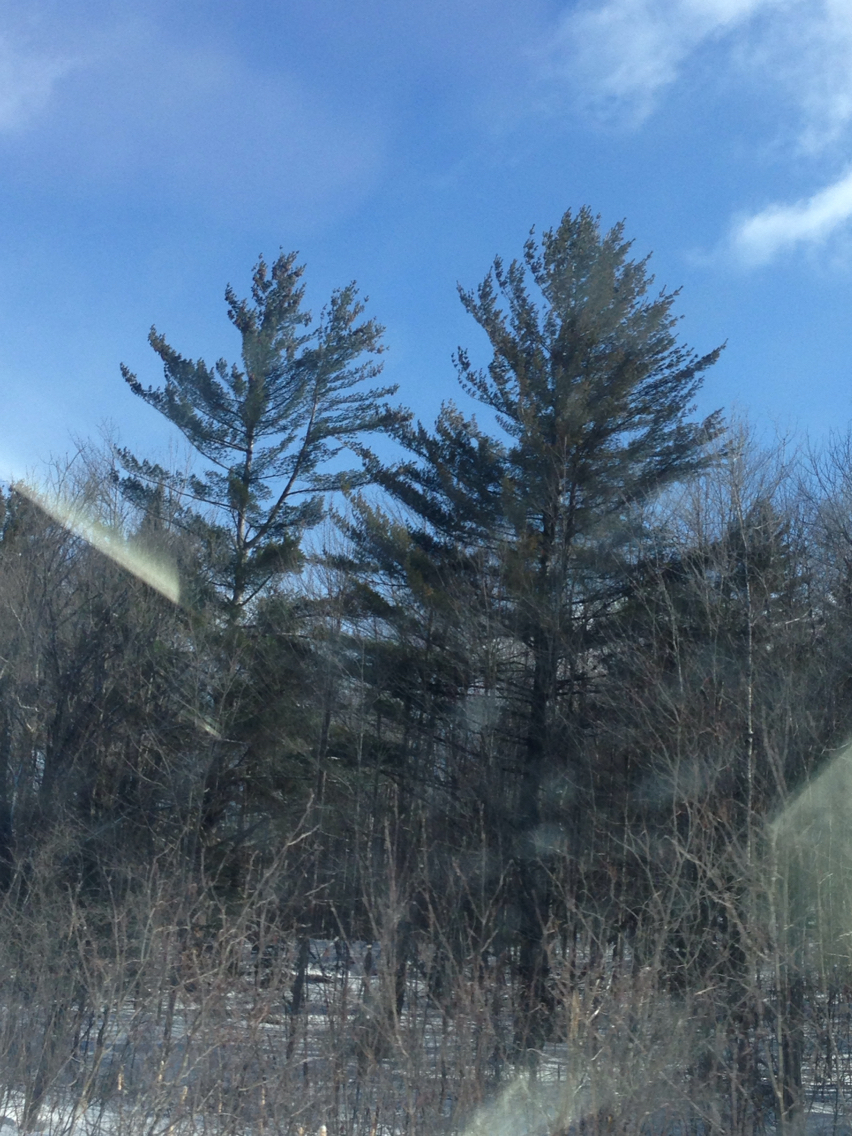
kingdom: Plantae
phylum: Tracheophyta
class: Pinopsida
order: Pinales
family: Pinaceae
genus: Pinus
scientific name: Pinus strobus
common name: Weymouth pine
